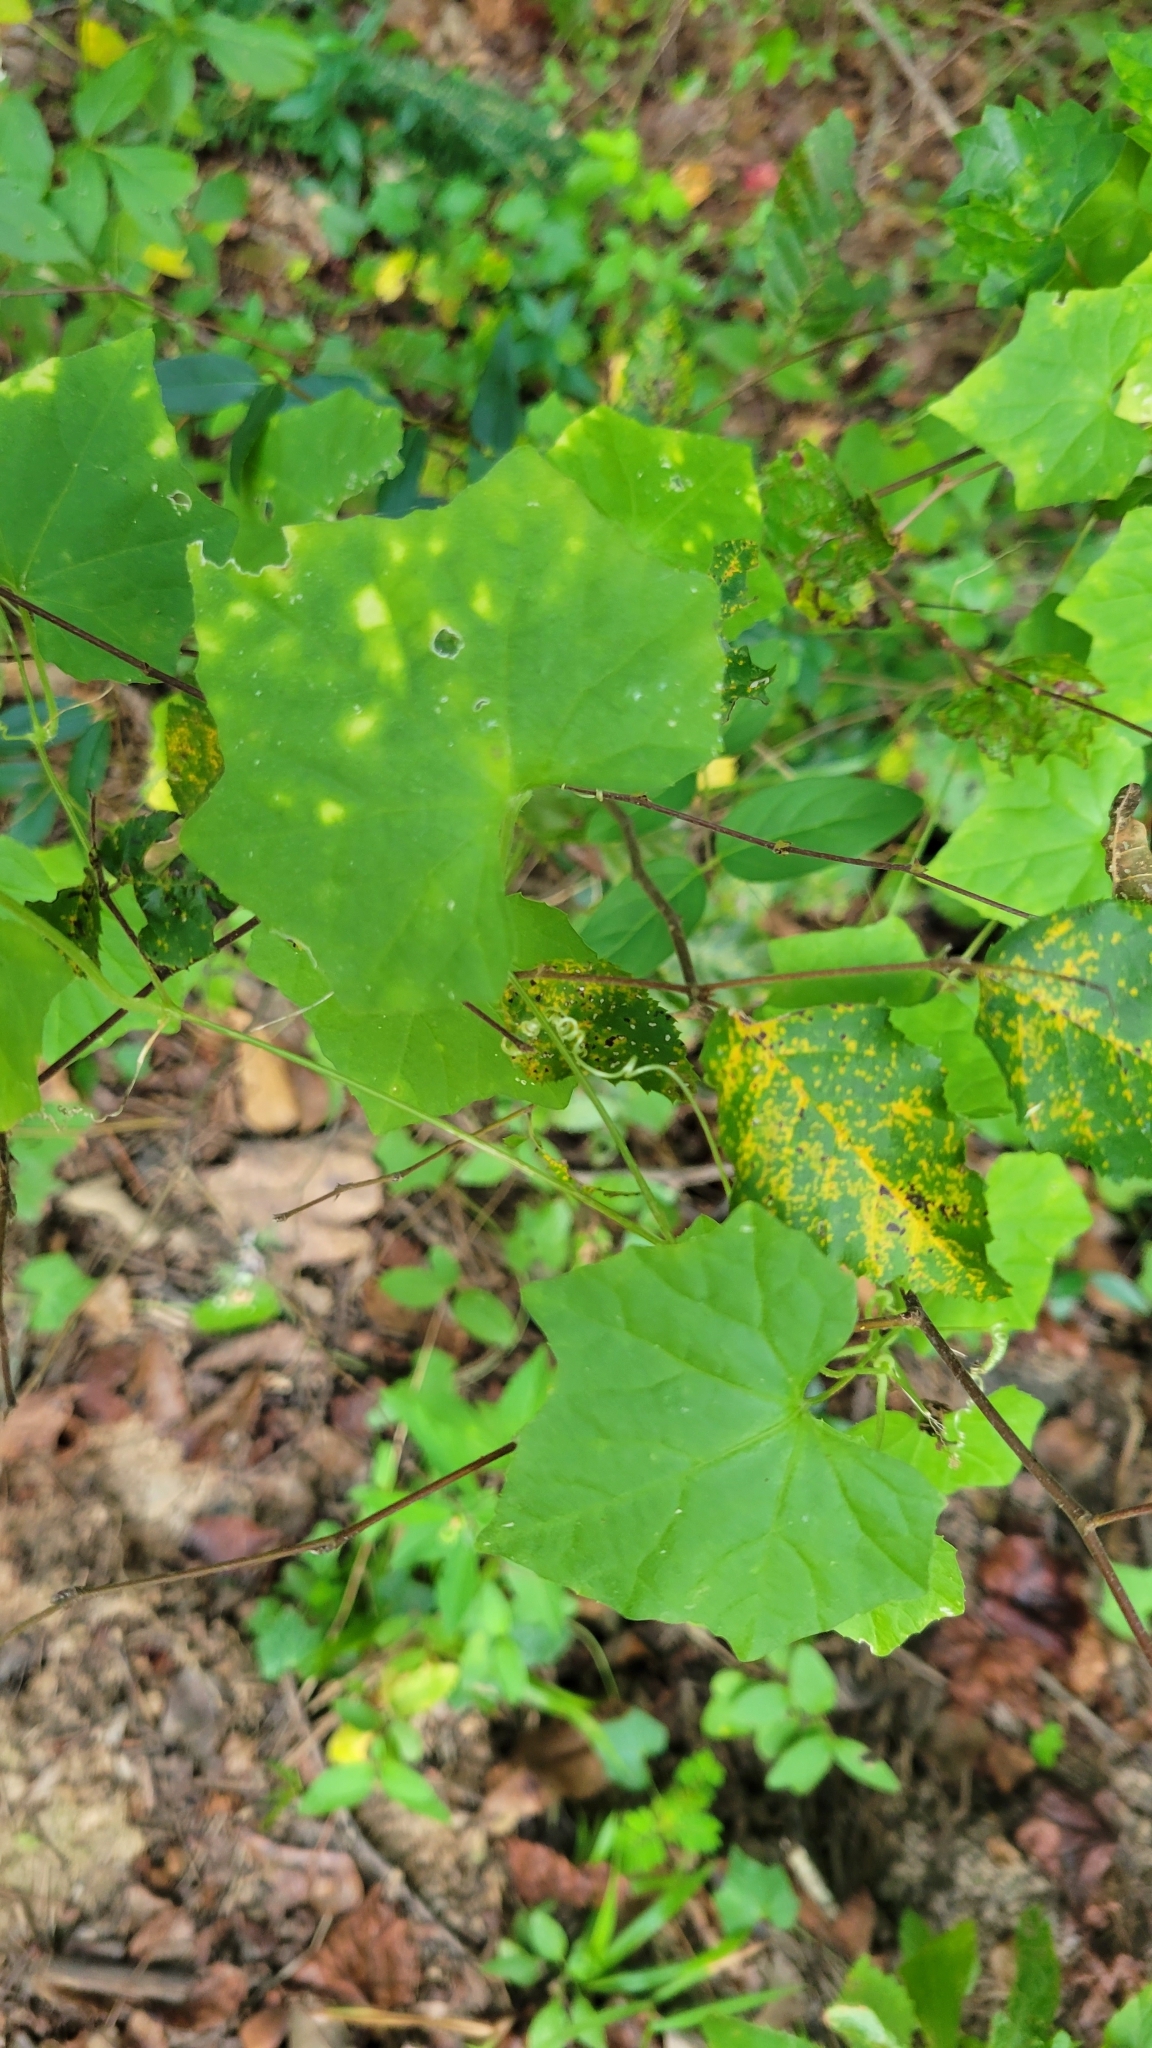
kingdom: Plantae
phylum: Tracheophyta
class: Magnoliopsida
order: Cucurbitales
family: Cucurbitaceae
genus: Melothria
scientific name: Melothria pendula
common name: Creeping-cucumber
